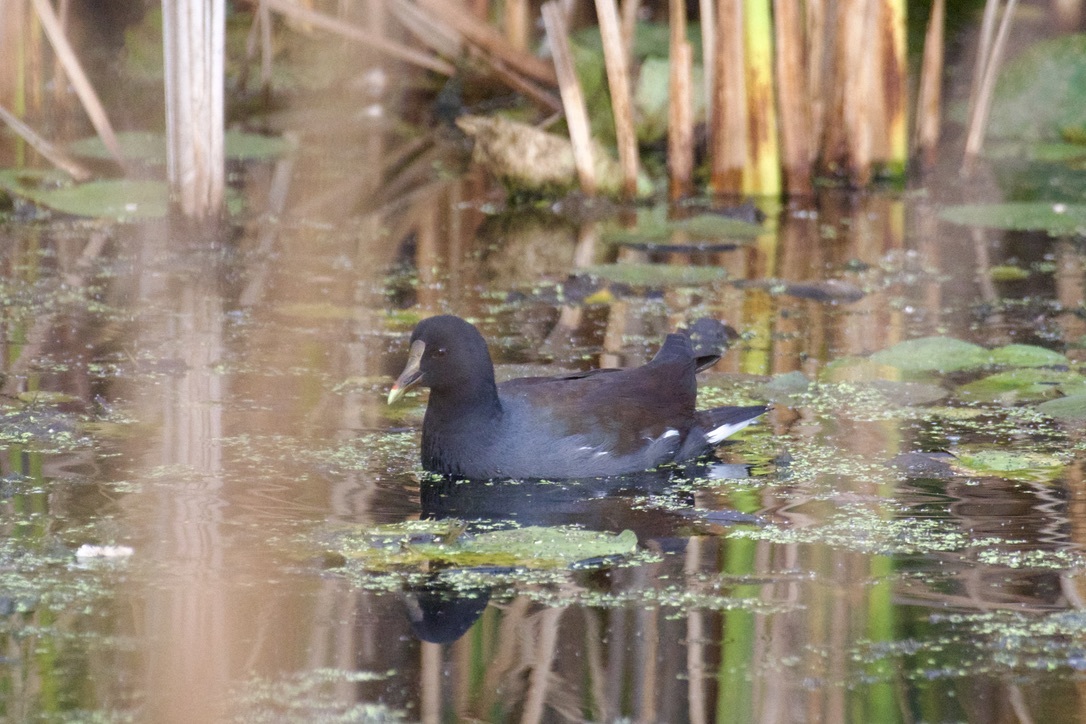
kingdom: Animalia
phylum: Chordata
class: Aves
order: Gruiformes
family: Rallidae
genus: Gallinula
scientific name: Gallinula chloropus
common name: Common moorhen
